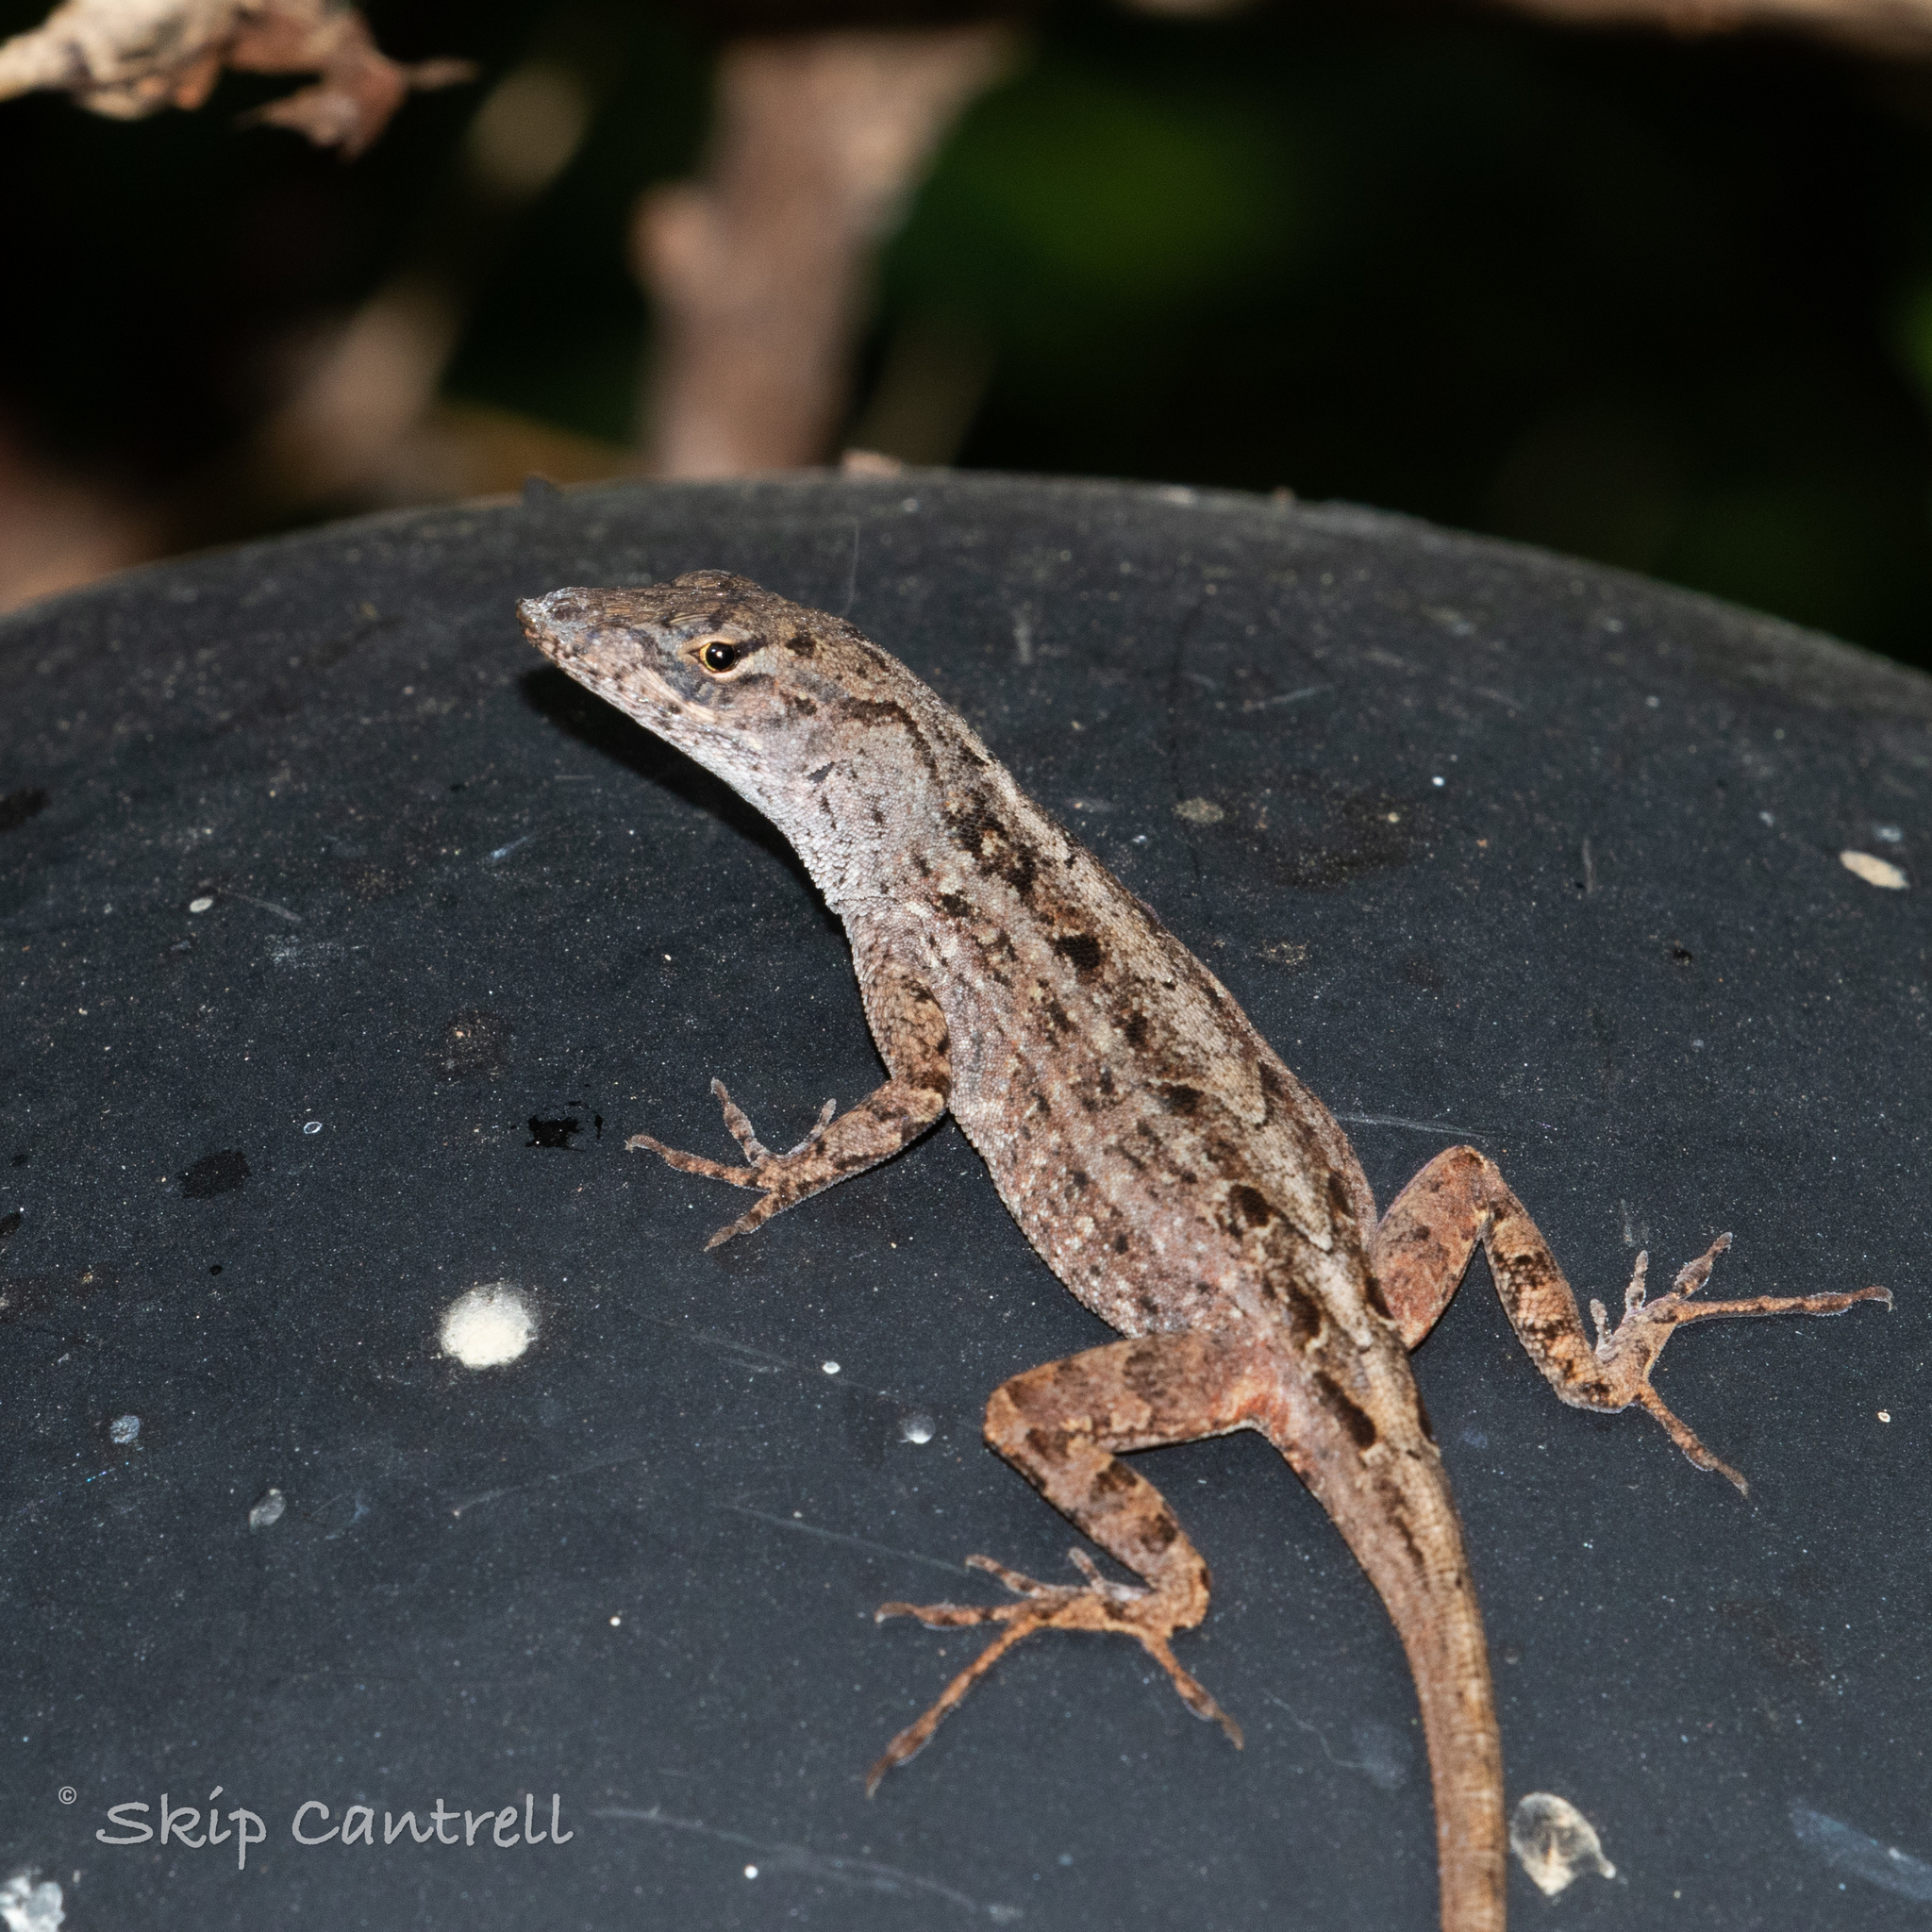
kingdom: Animalia
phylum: Chordata
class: Squamata
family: Dactyloidae
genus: Anolis
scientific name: Anolis sagrei
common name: Brown anole
